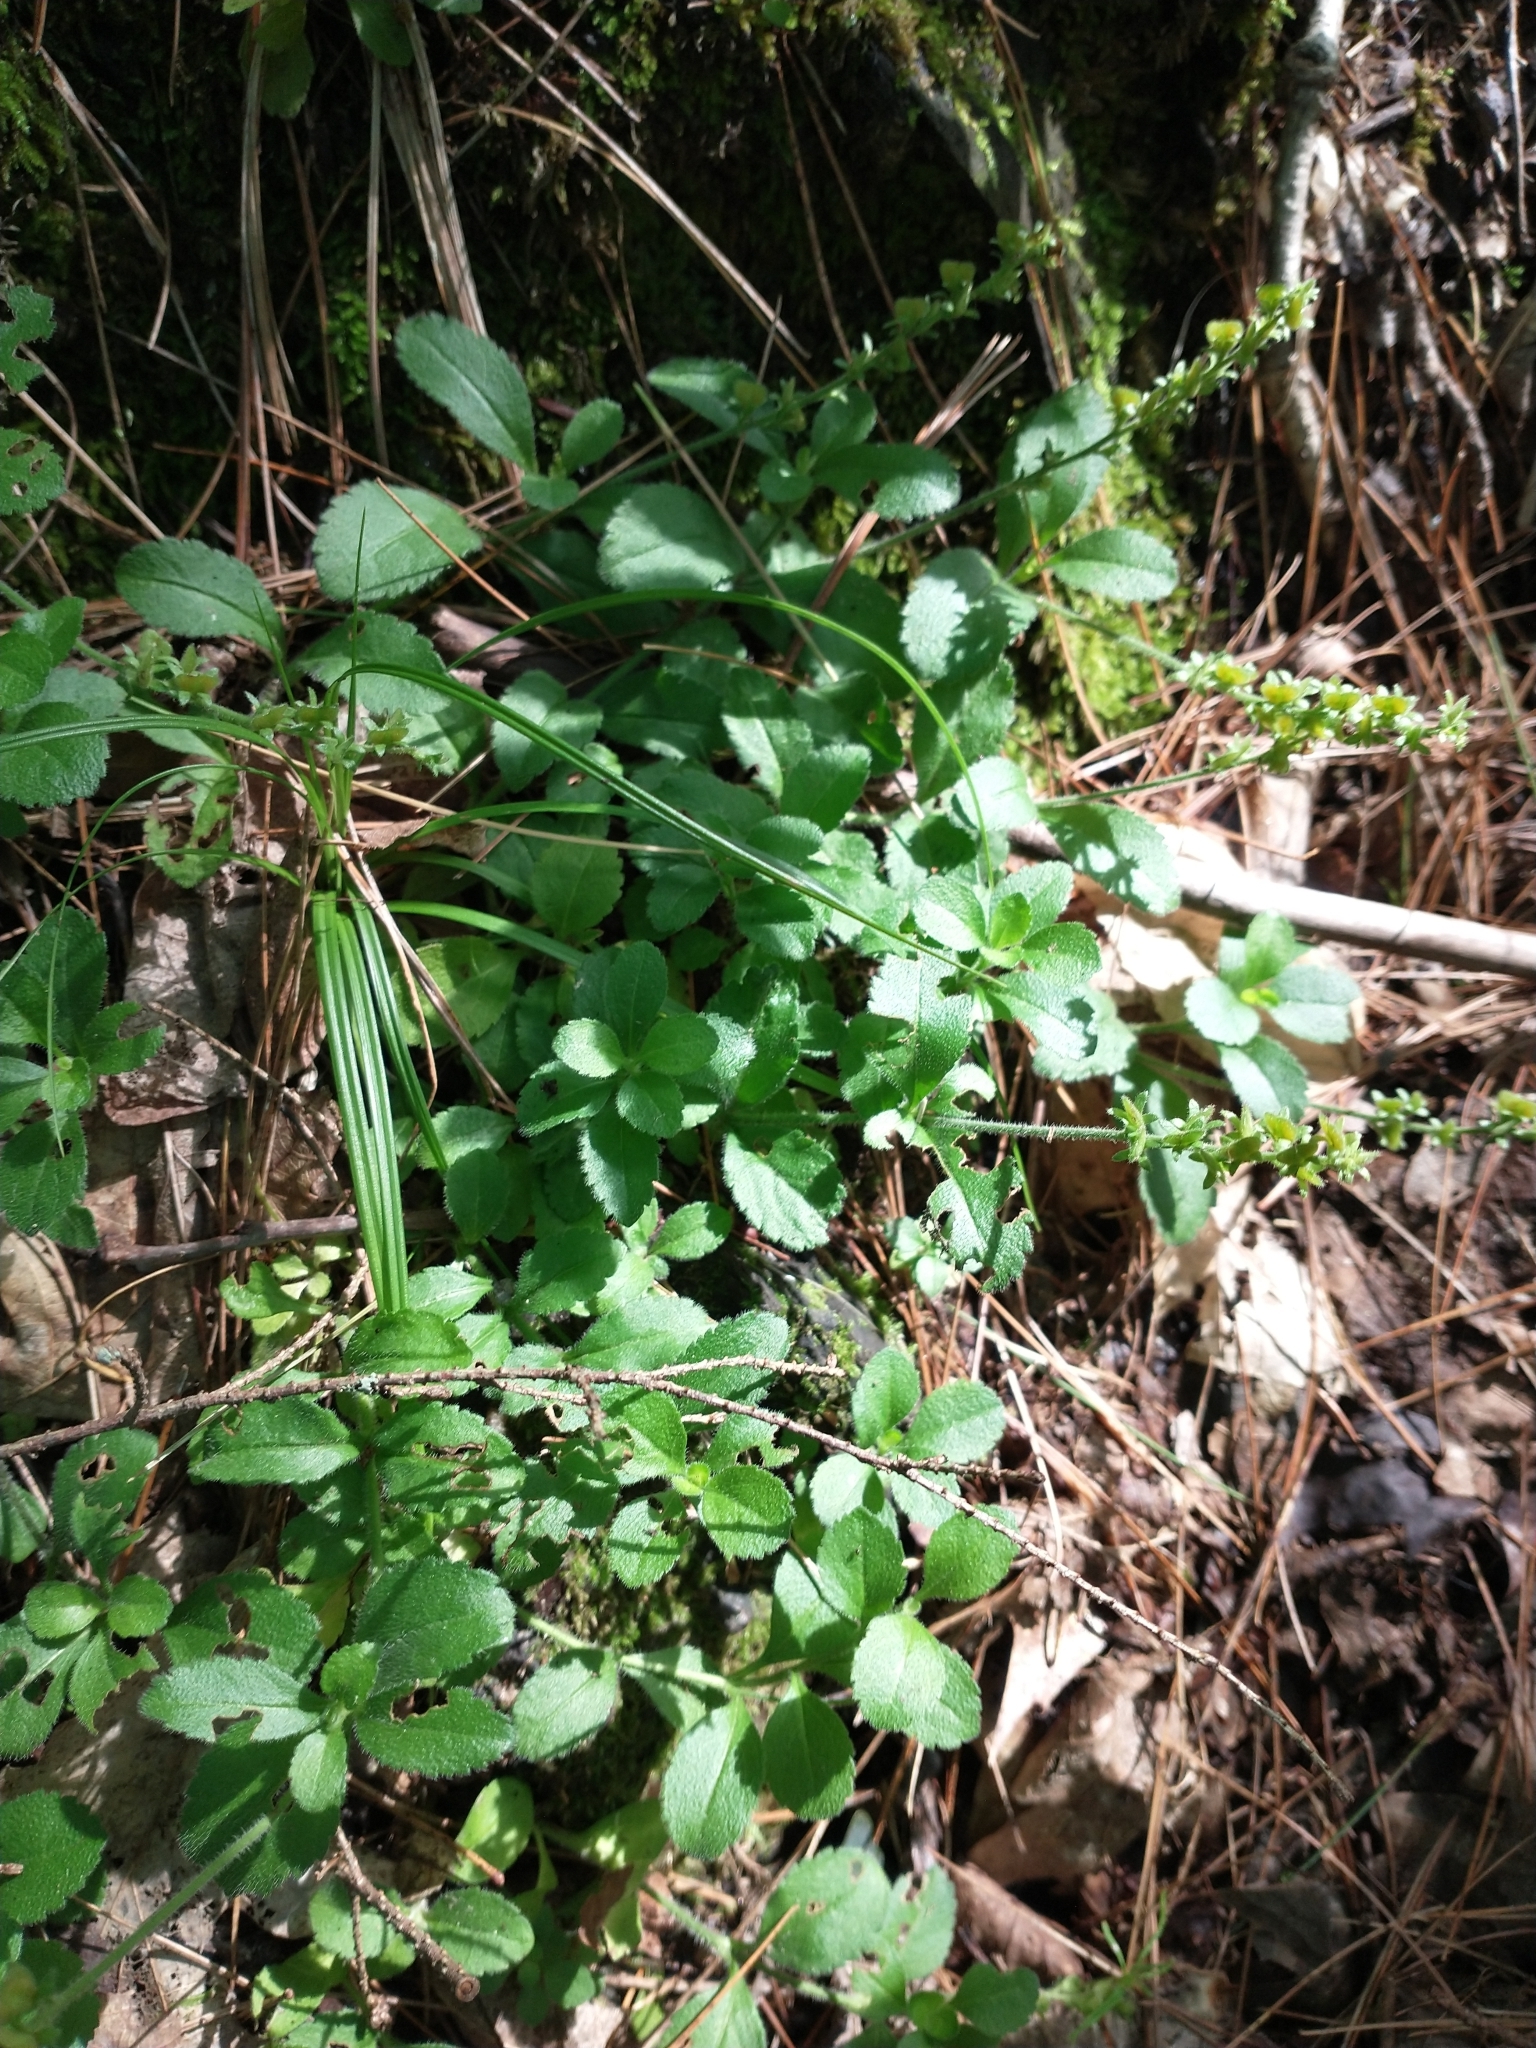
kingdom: Plantae
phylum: Tracheophyta
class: Magnoliopsida
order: Lamiales
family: Plantaginaceae
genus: Veronica
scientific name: Veronica officinalis
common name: Common speedwell
